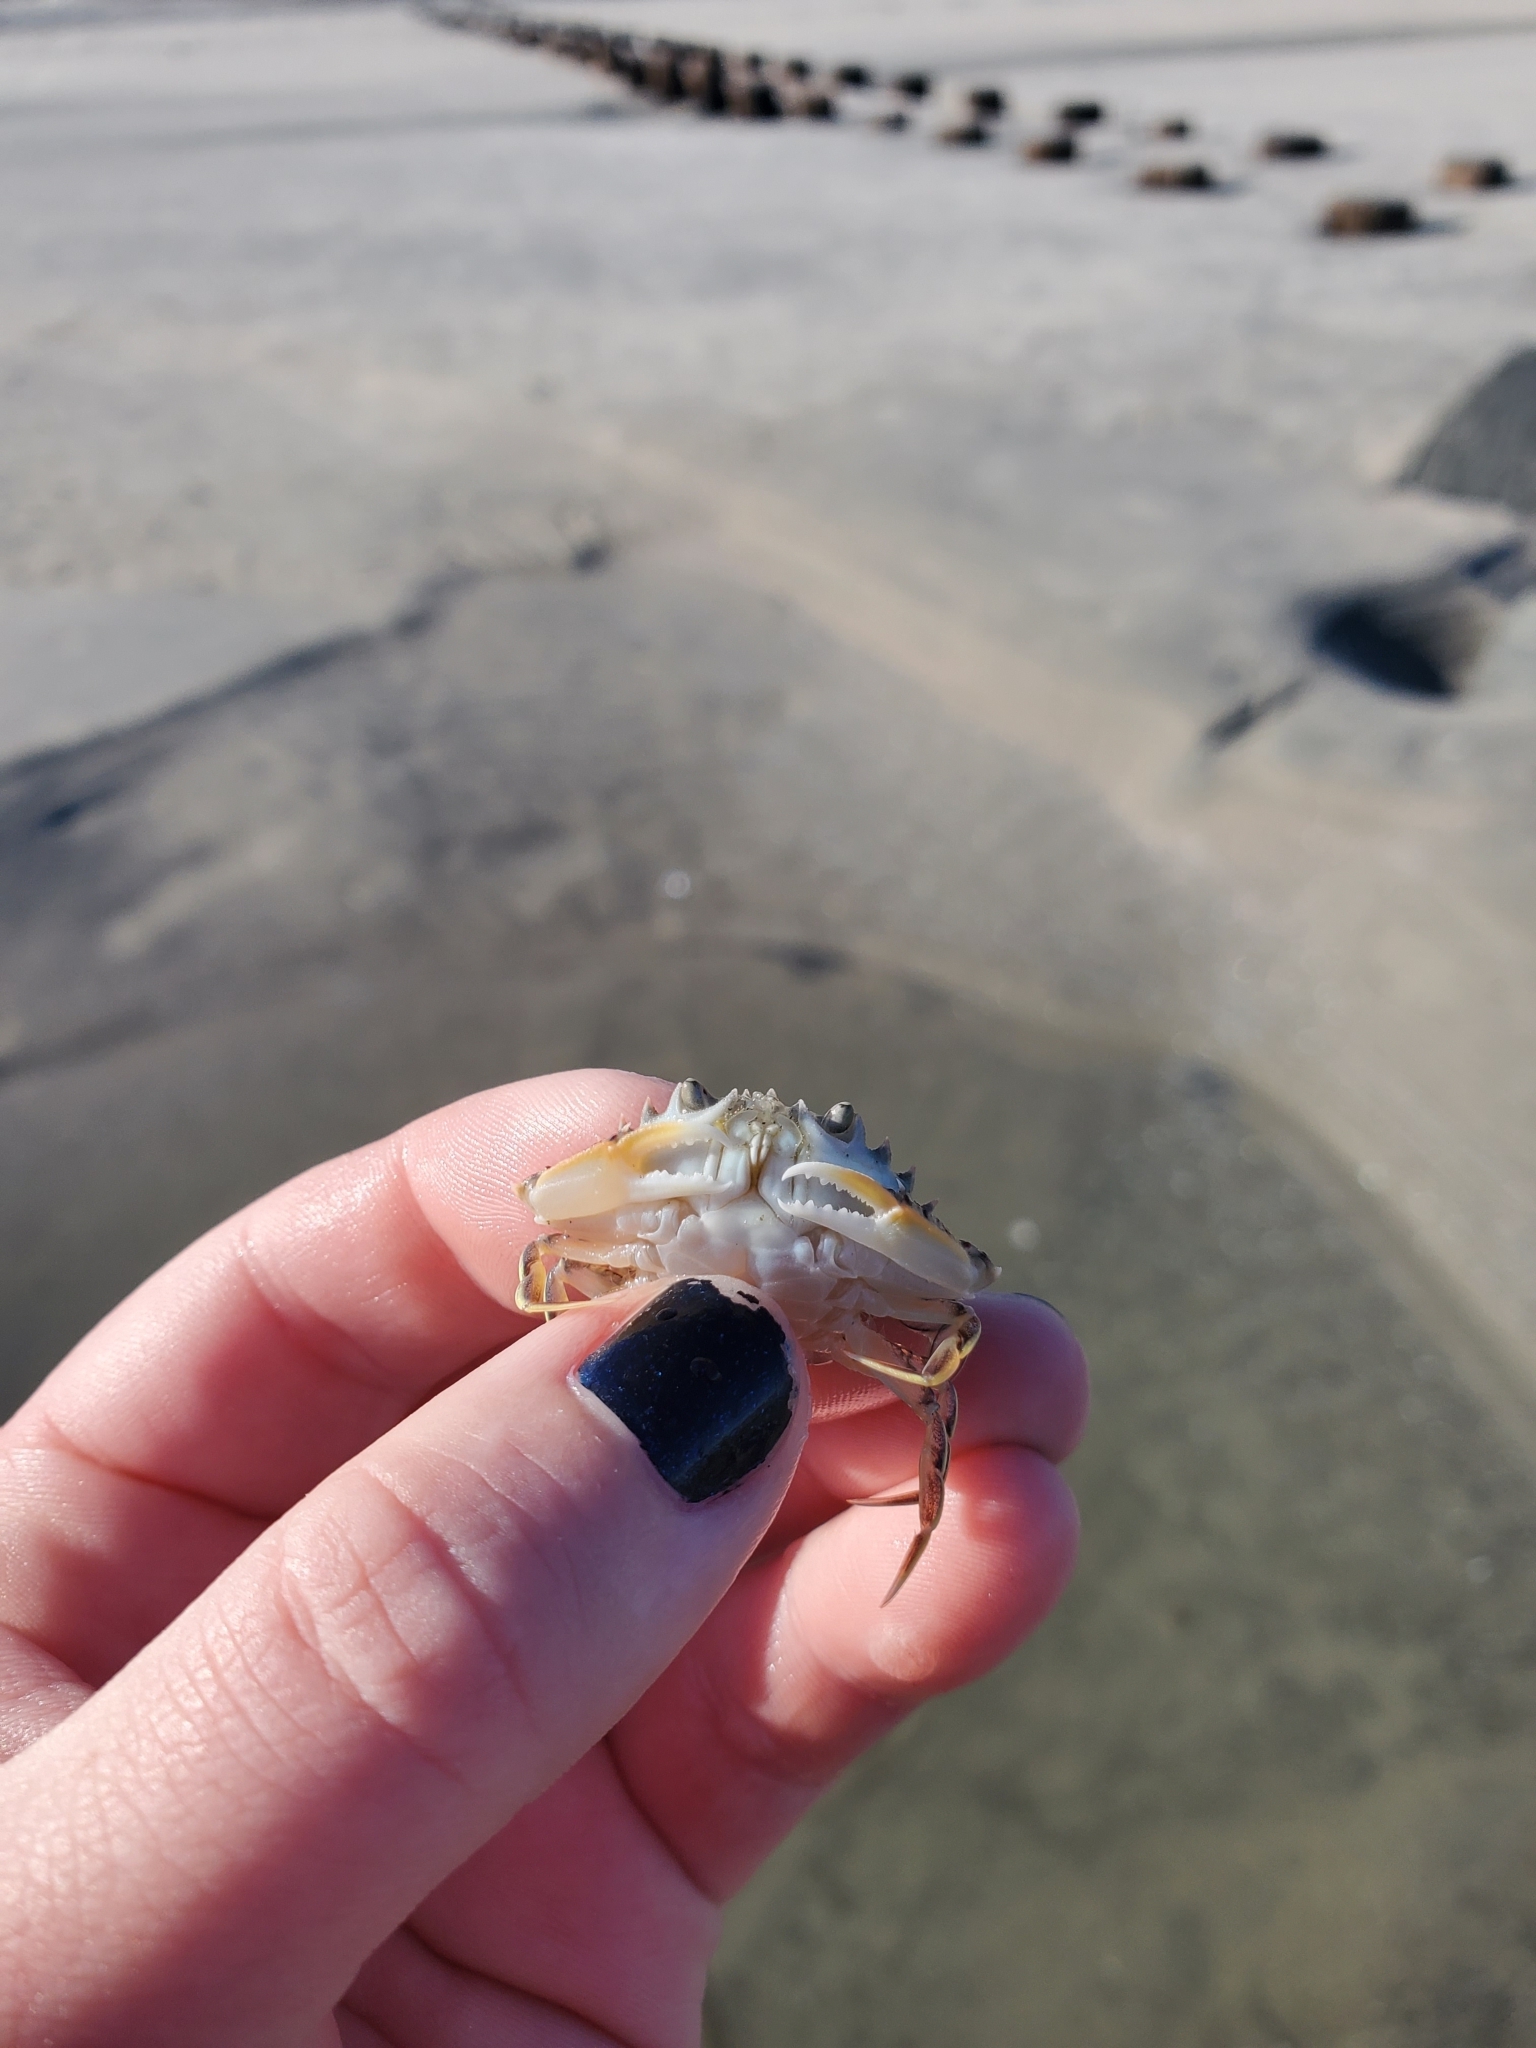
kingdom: Animalia
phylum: Arthropoda
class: Malacostraca
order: Decapoda
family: Ovalipidae
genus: Ovalipes
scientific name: Ovalipes ocellatus
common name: Lady crab
